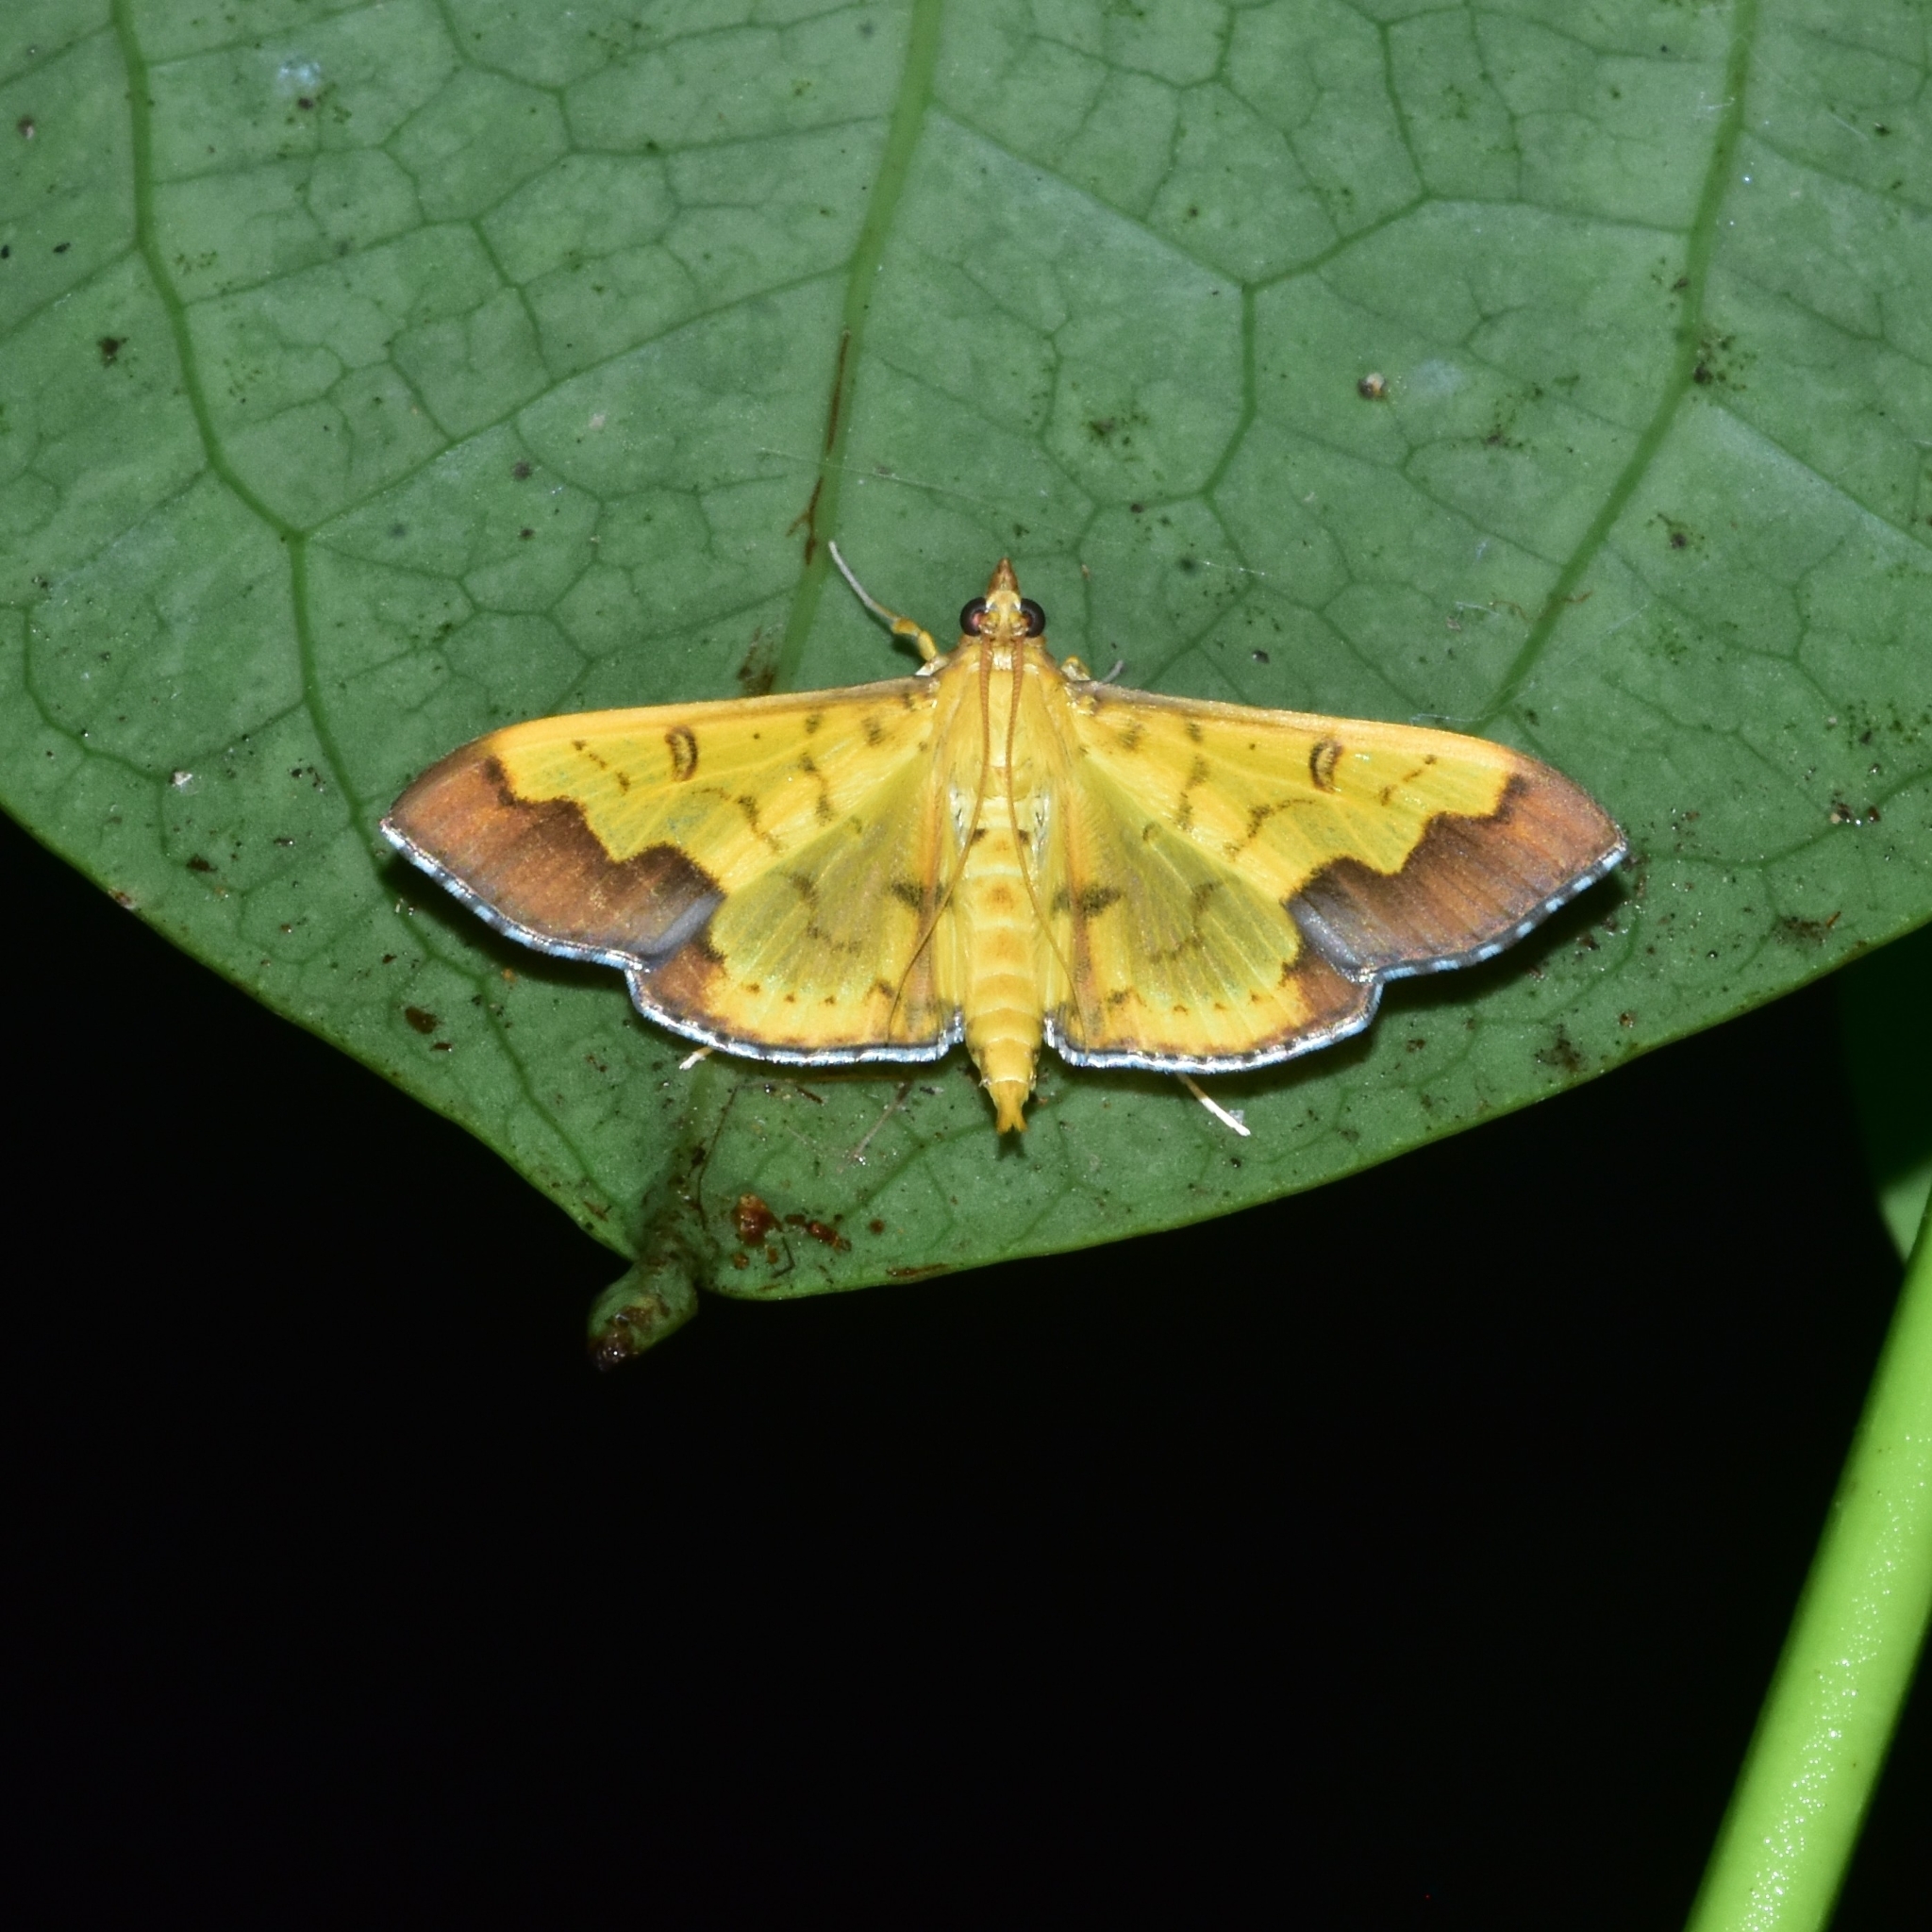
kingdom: Animalia
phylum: Arthropoda
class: Insecta
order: Lepidoptera
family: Crambidae
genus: Meroctena
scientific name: Meroctena tullalis
